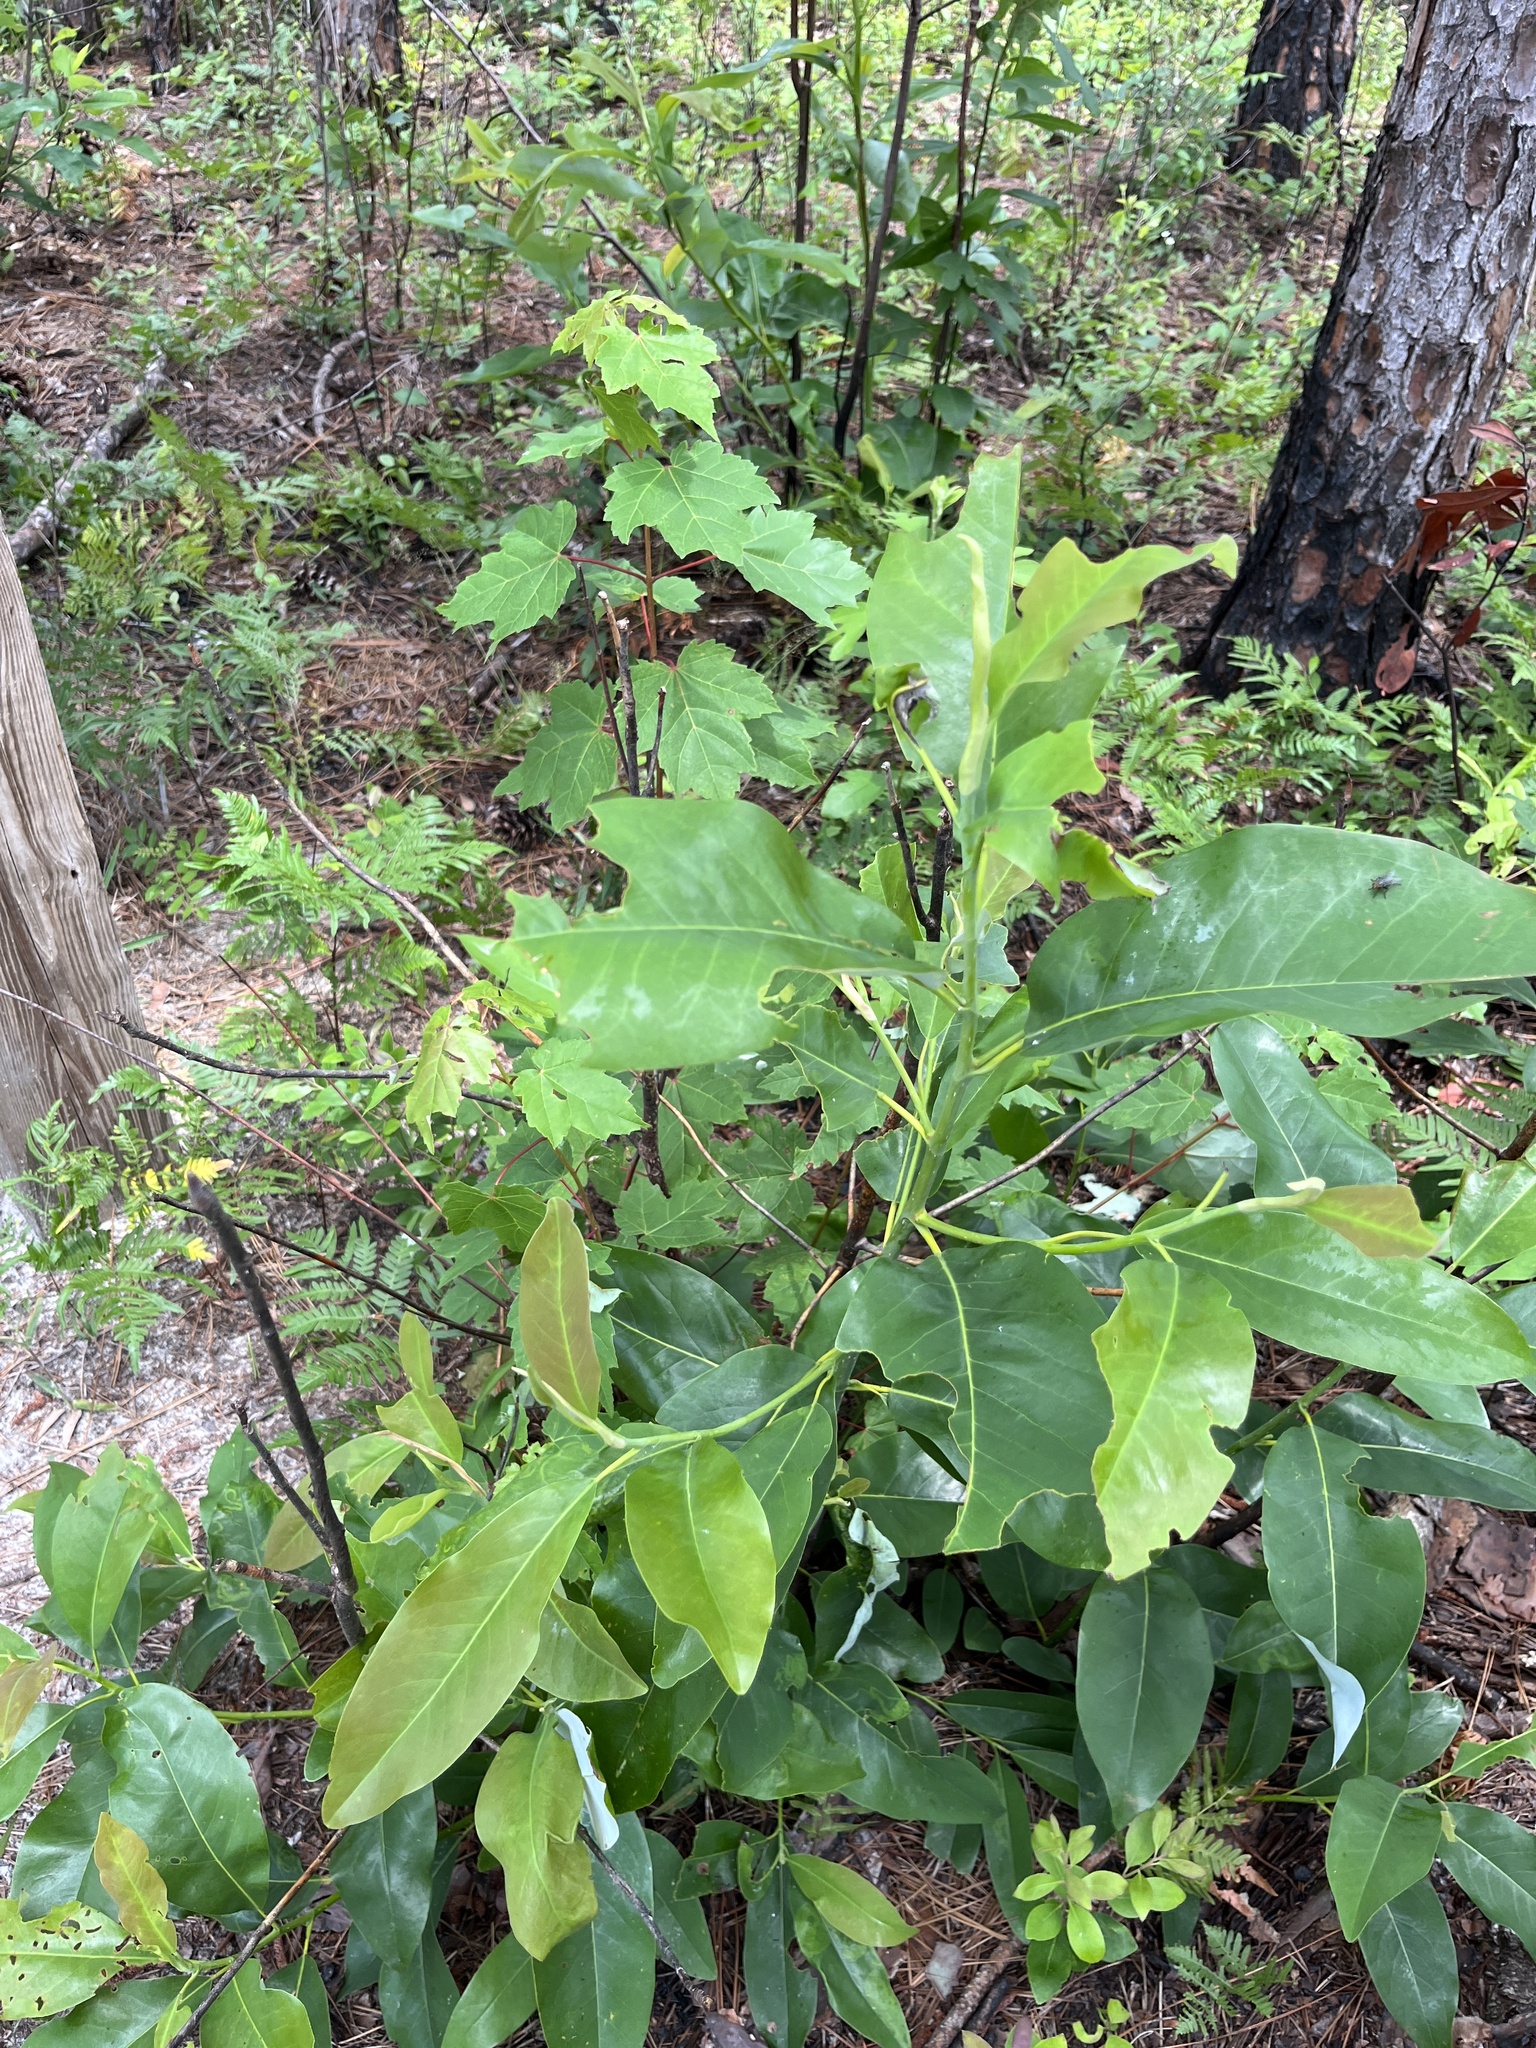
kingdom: Plantae
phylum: Tracheophyta
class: Magnoliopsida
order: Magnoliales
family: Magnoliaceae
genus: Magnolia
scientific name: Magnolia virginiana
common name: Swamp bay
